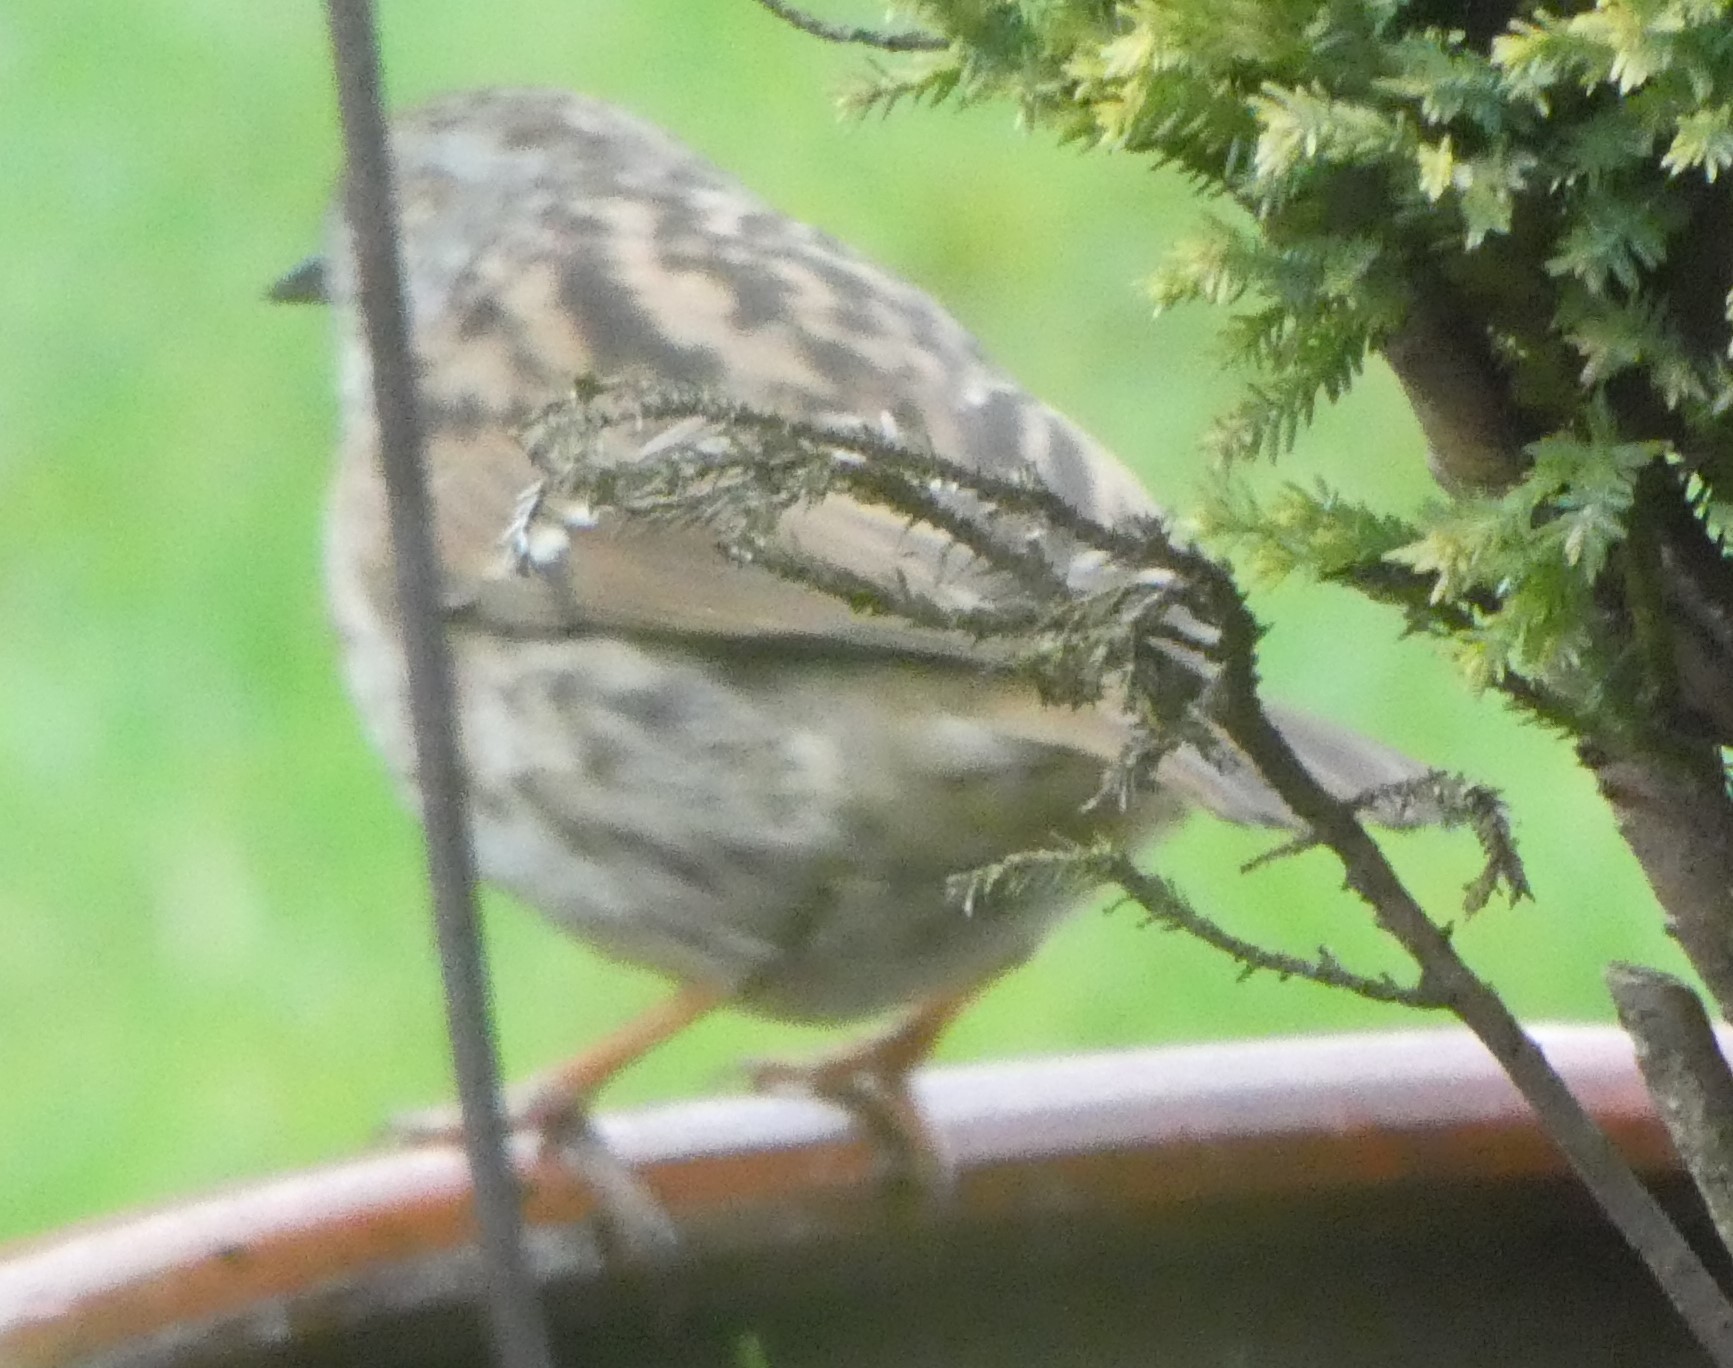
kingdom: Animalia
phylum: Chordata
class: Aves
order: Passeriformes
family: Prunellidae
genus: Prunella
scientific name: Prunella modularis
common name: Dunnock
